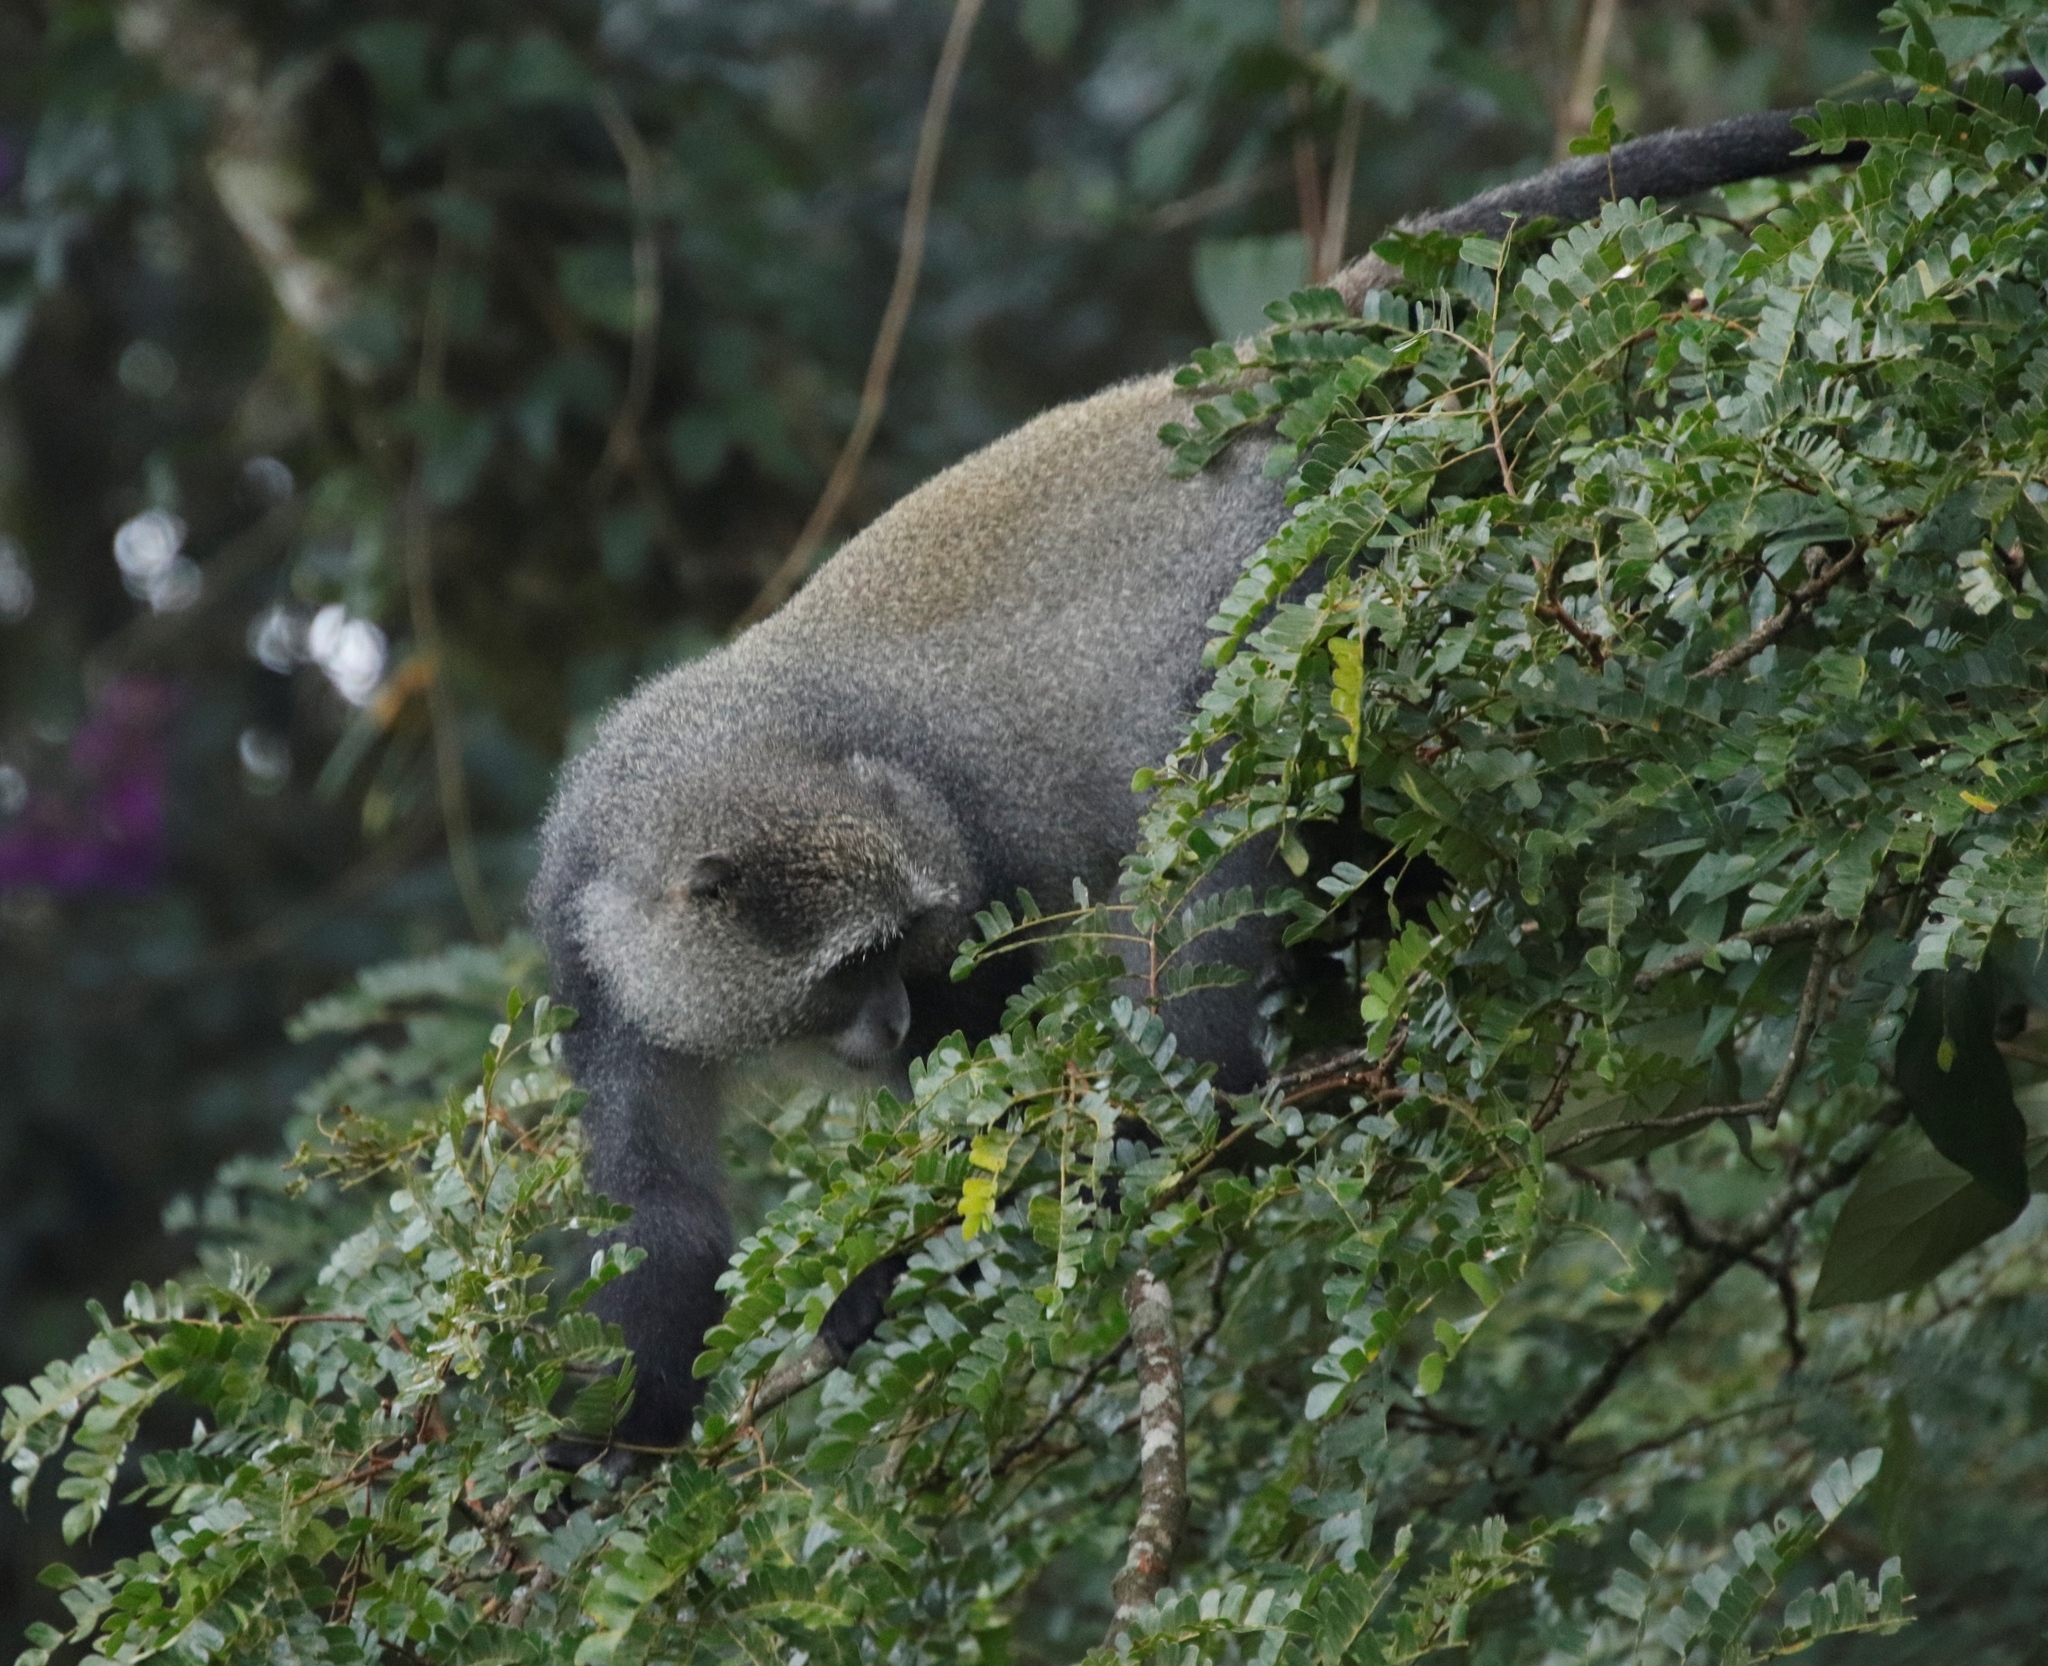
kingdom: Animalia
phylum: Chordata
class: Mammalia
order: Primates
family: Cercopithecidae
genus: Cercopithecus
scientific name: Cercopithecus mitis
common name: Blue monkey
